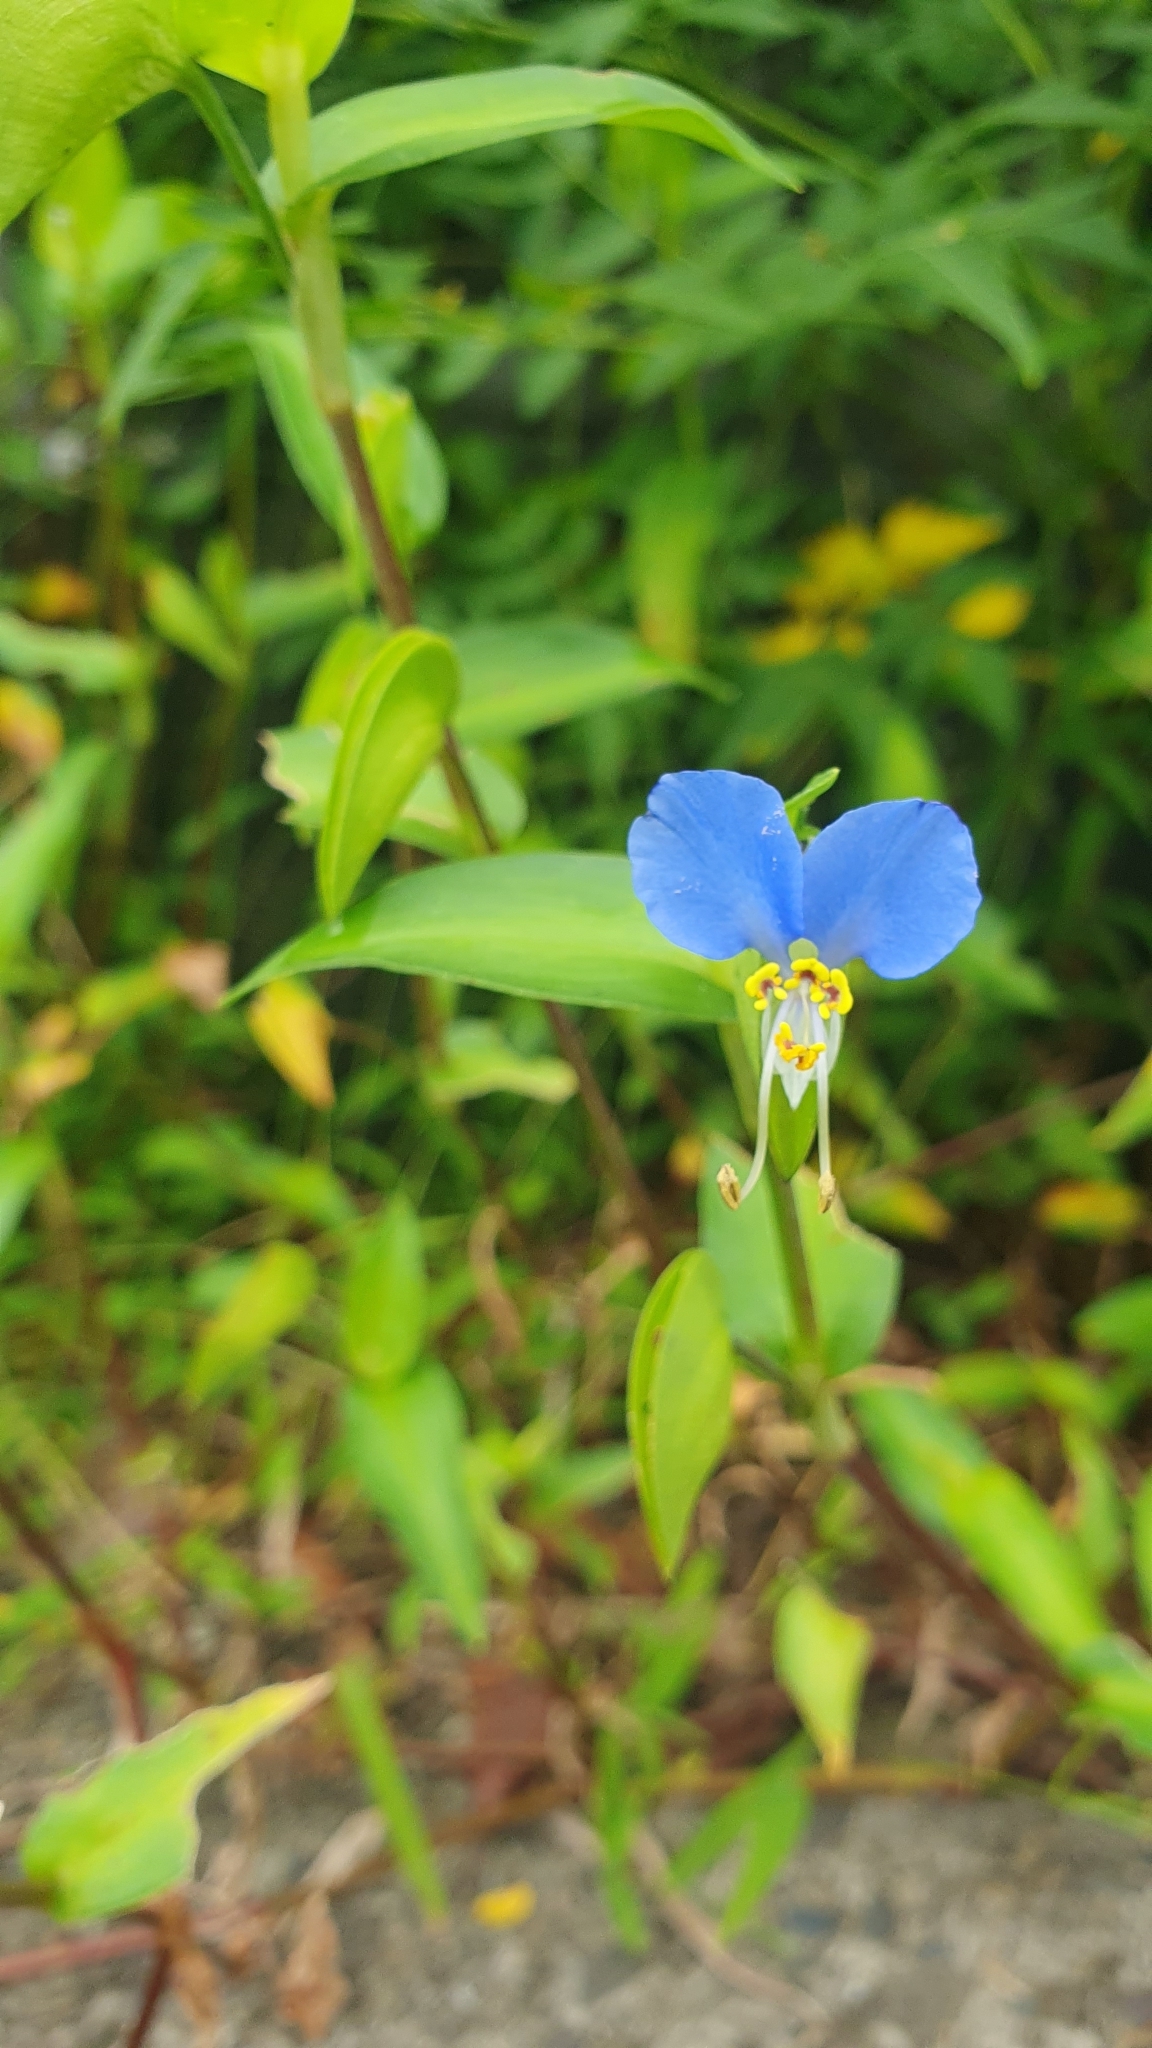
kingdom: Plantae
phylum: Tracheophyta
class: Liliopsida
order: Commelinales
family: Commelinaceae
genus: Commelina
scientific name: Commelina communis
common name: Asiatic dayflower
